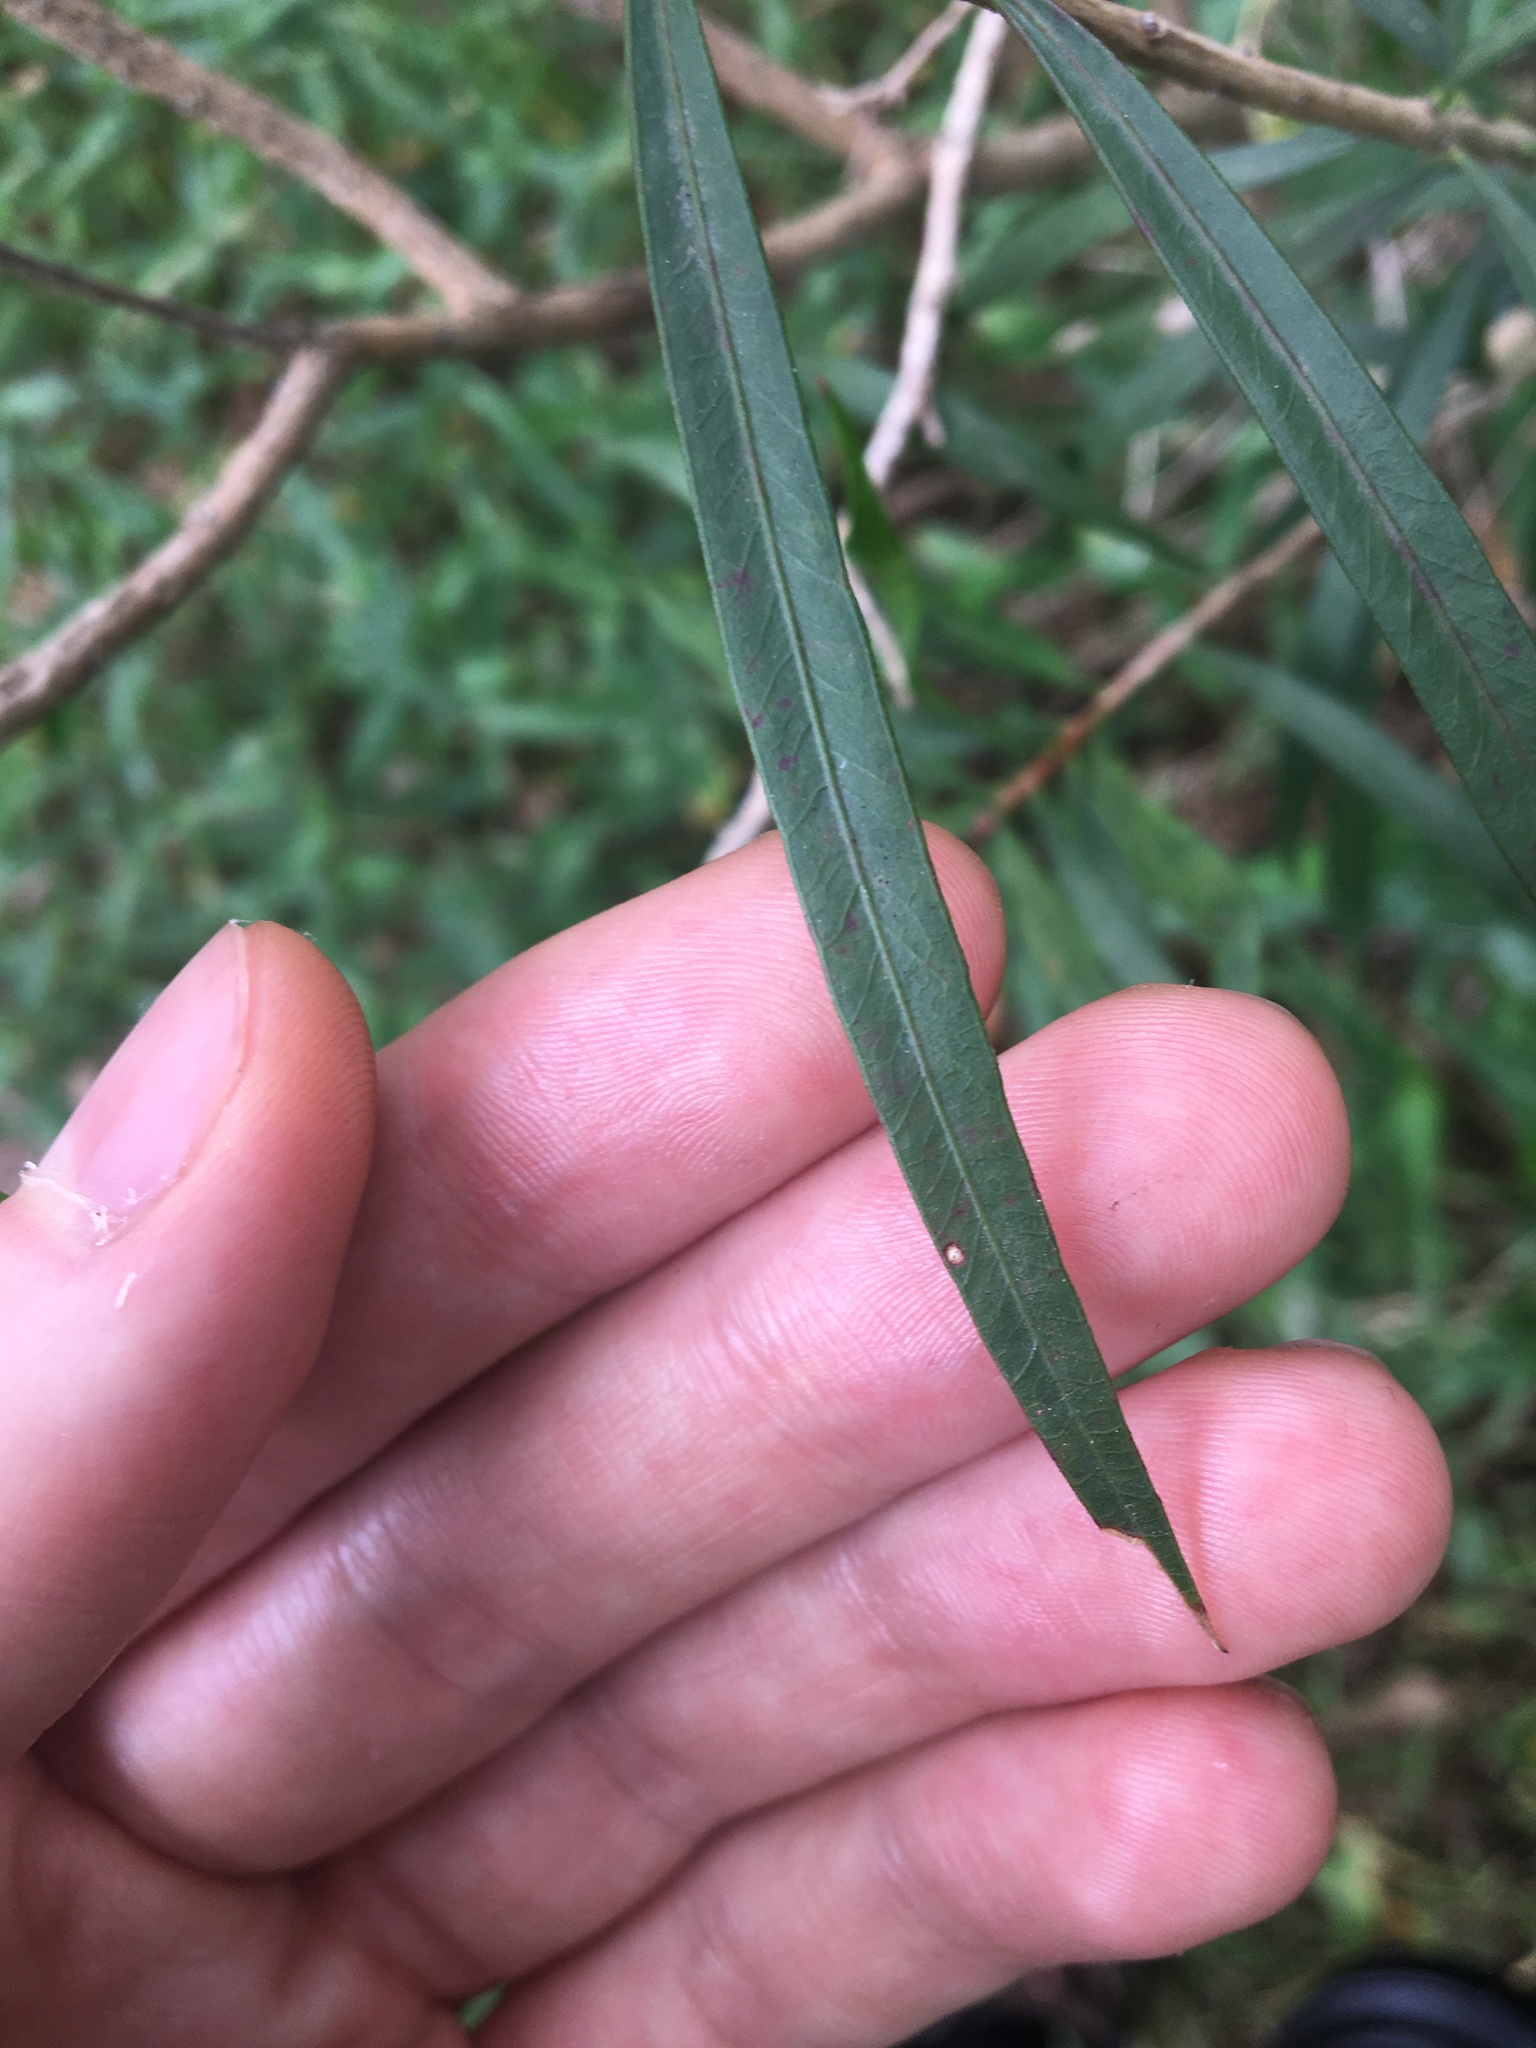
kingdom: Plantae
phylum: Tracheophyta
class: Magnoliopsida
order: Myrtales
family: Myrtaceae
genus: Melaleuca
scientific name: Melaleuca linearifolia
